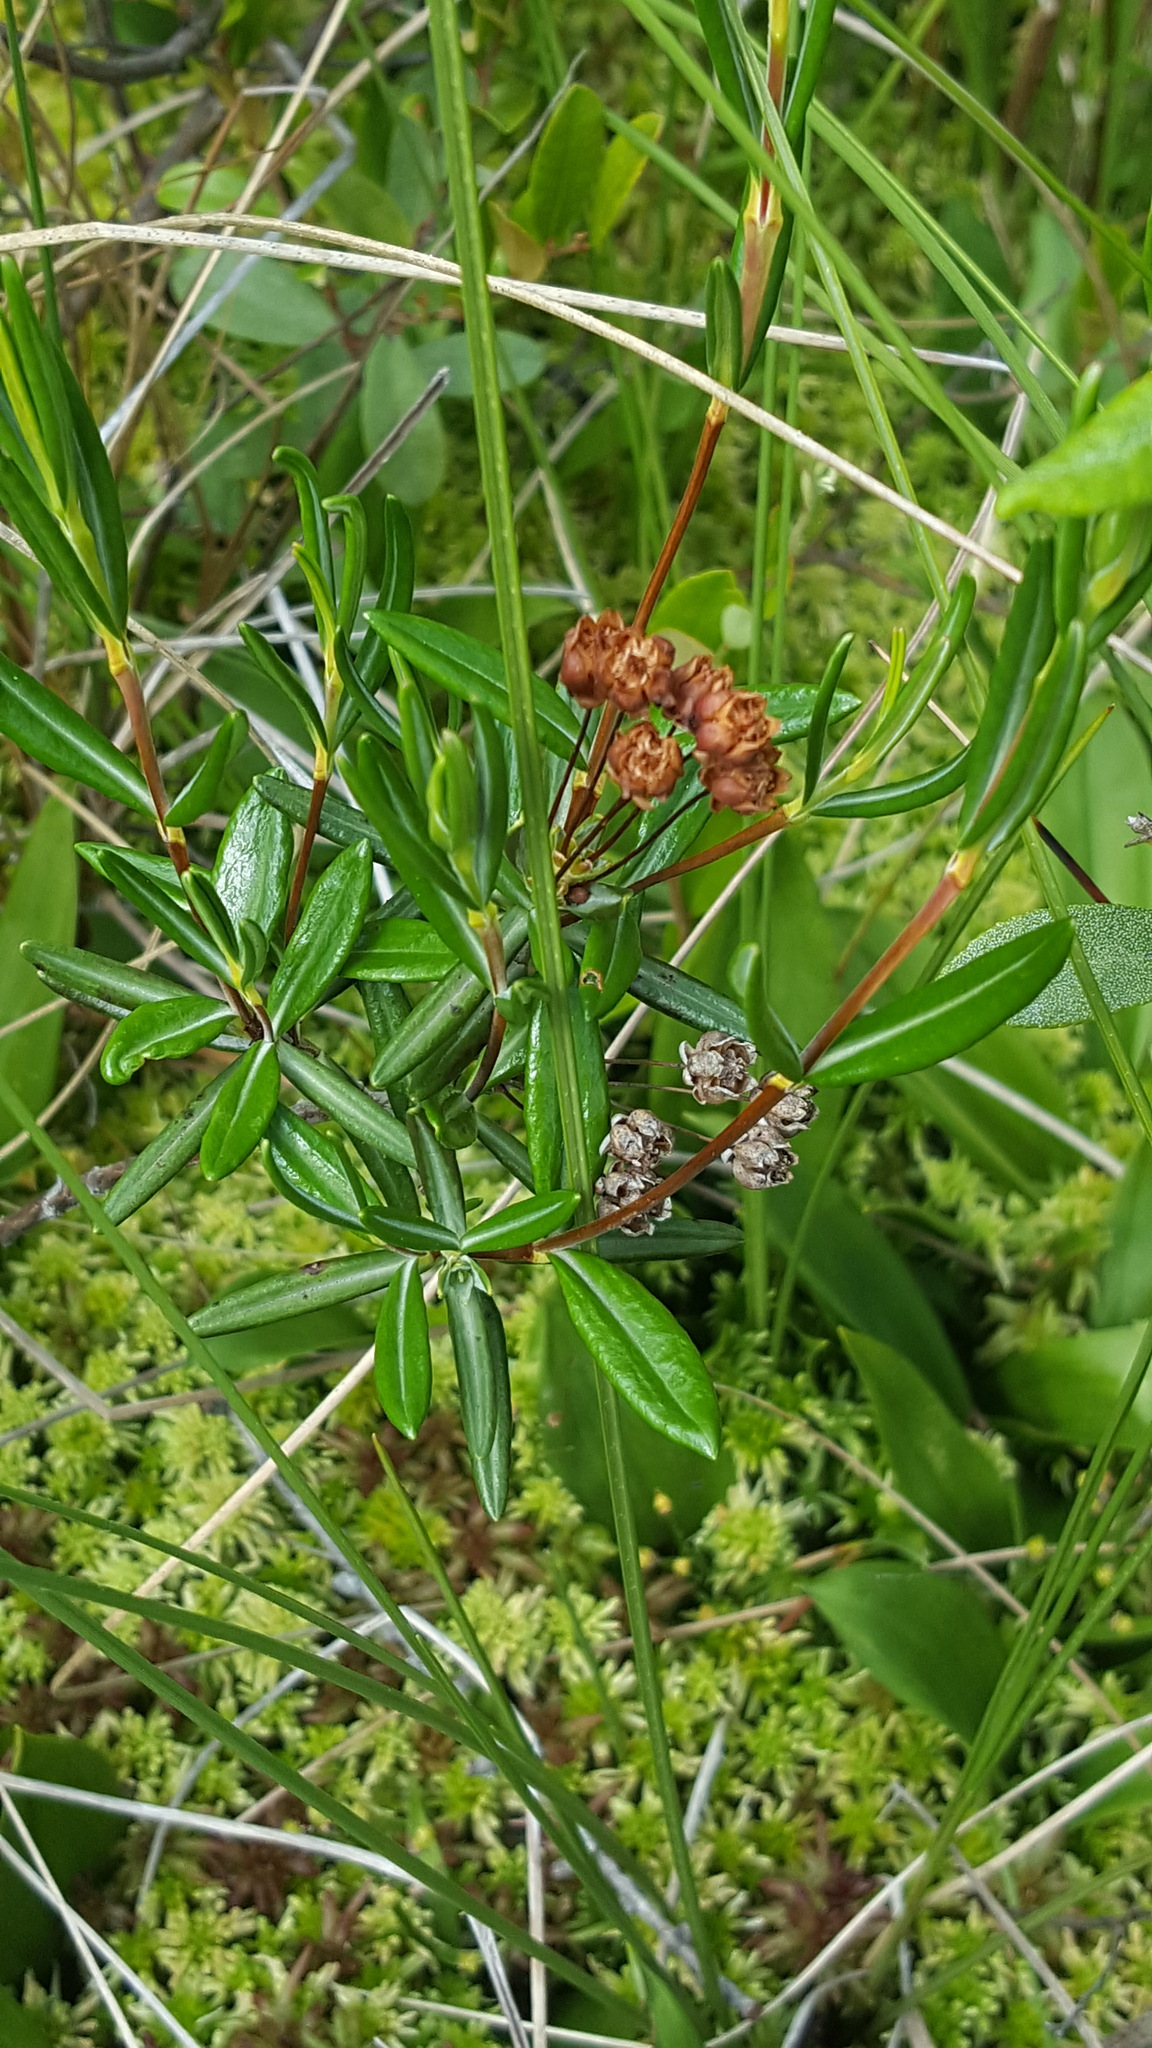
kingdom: Plantae
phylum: Tracheophyta
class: Magnoliopsida
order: Ericales
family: Ericaceae
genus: Kalmia
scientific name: Kalmia polifolia
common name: Bog-laurel
